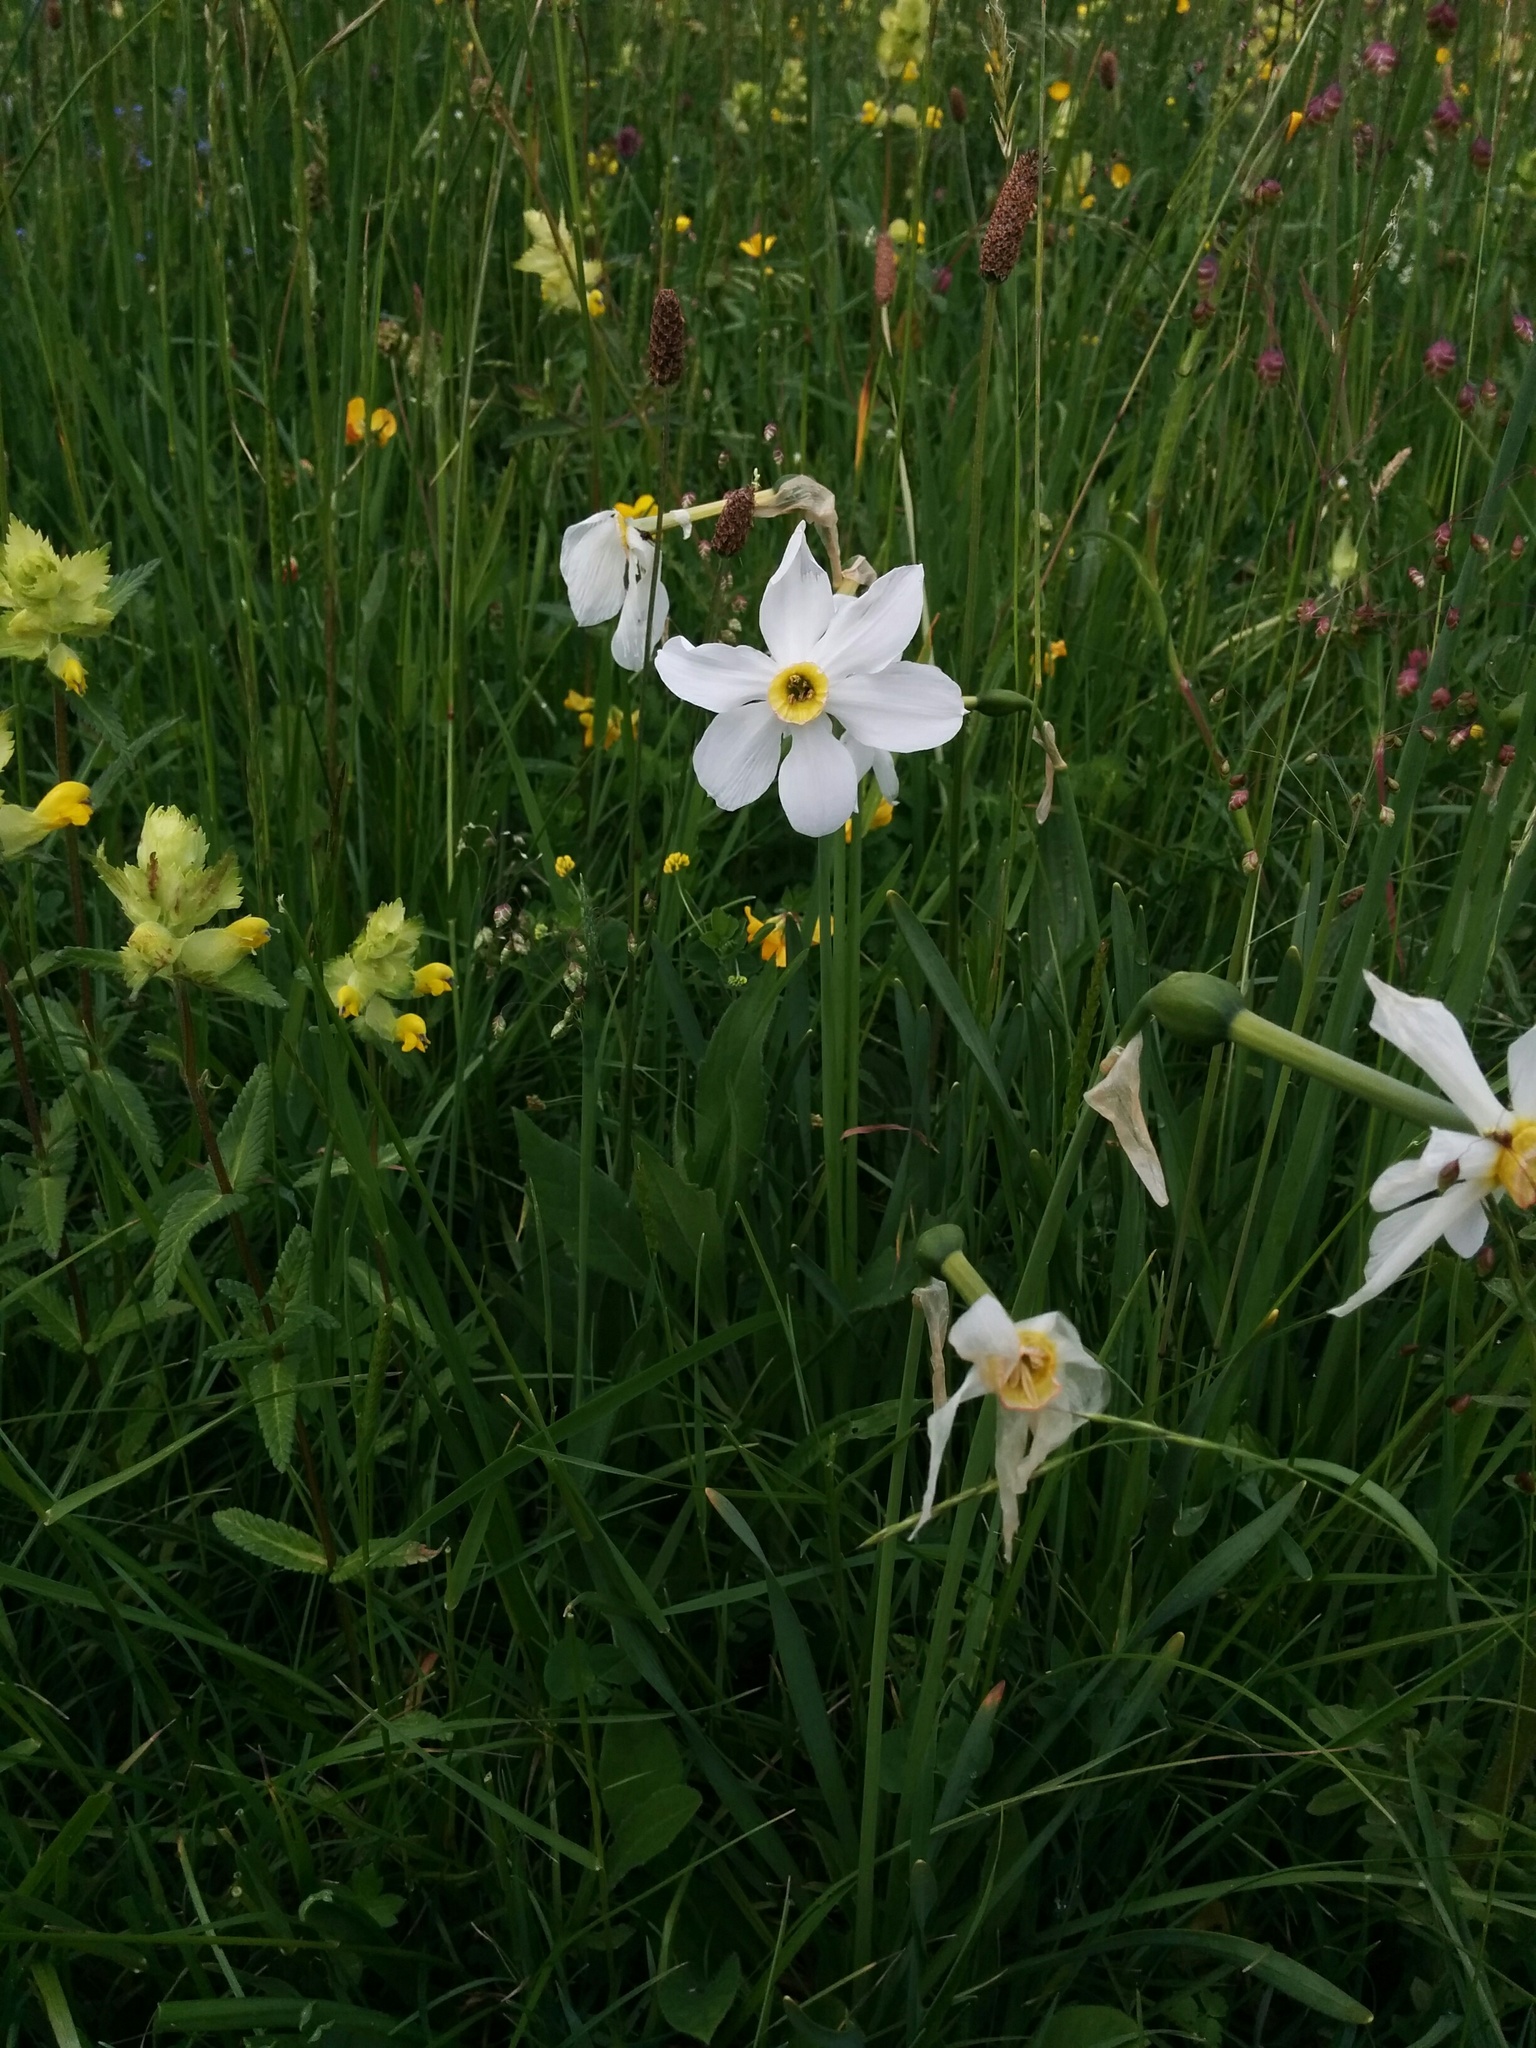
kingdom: Plantae
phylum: Tracheophyta
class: Liliopsida
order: Asparagales
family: Amaryllidaceae
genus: Narcissus
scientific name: Narcissus poeticus
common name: Pheasant's-eye daffodil
